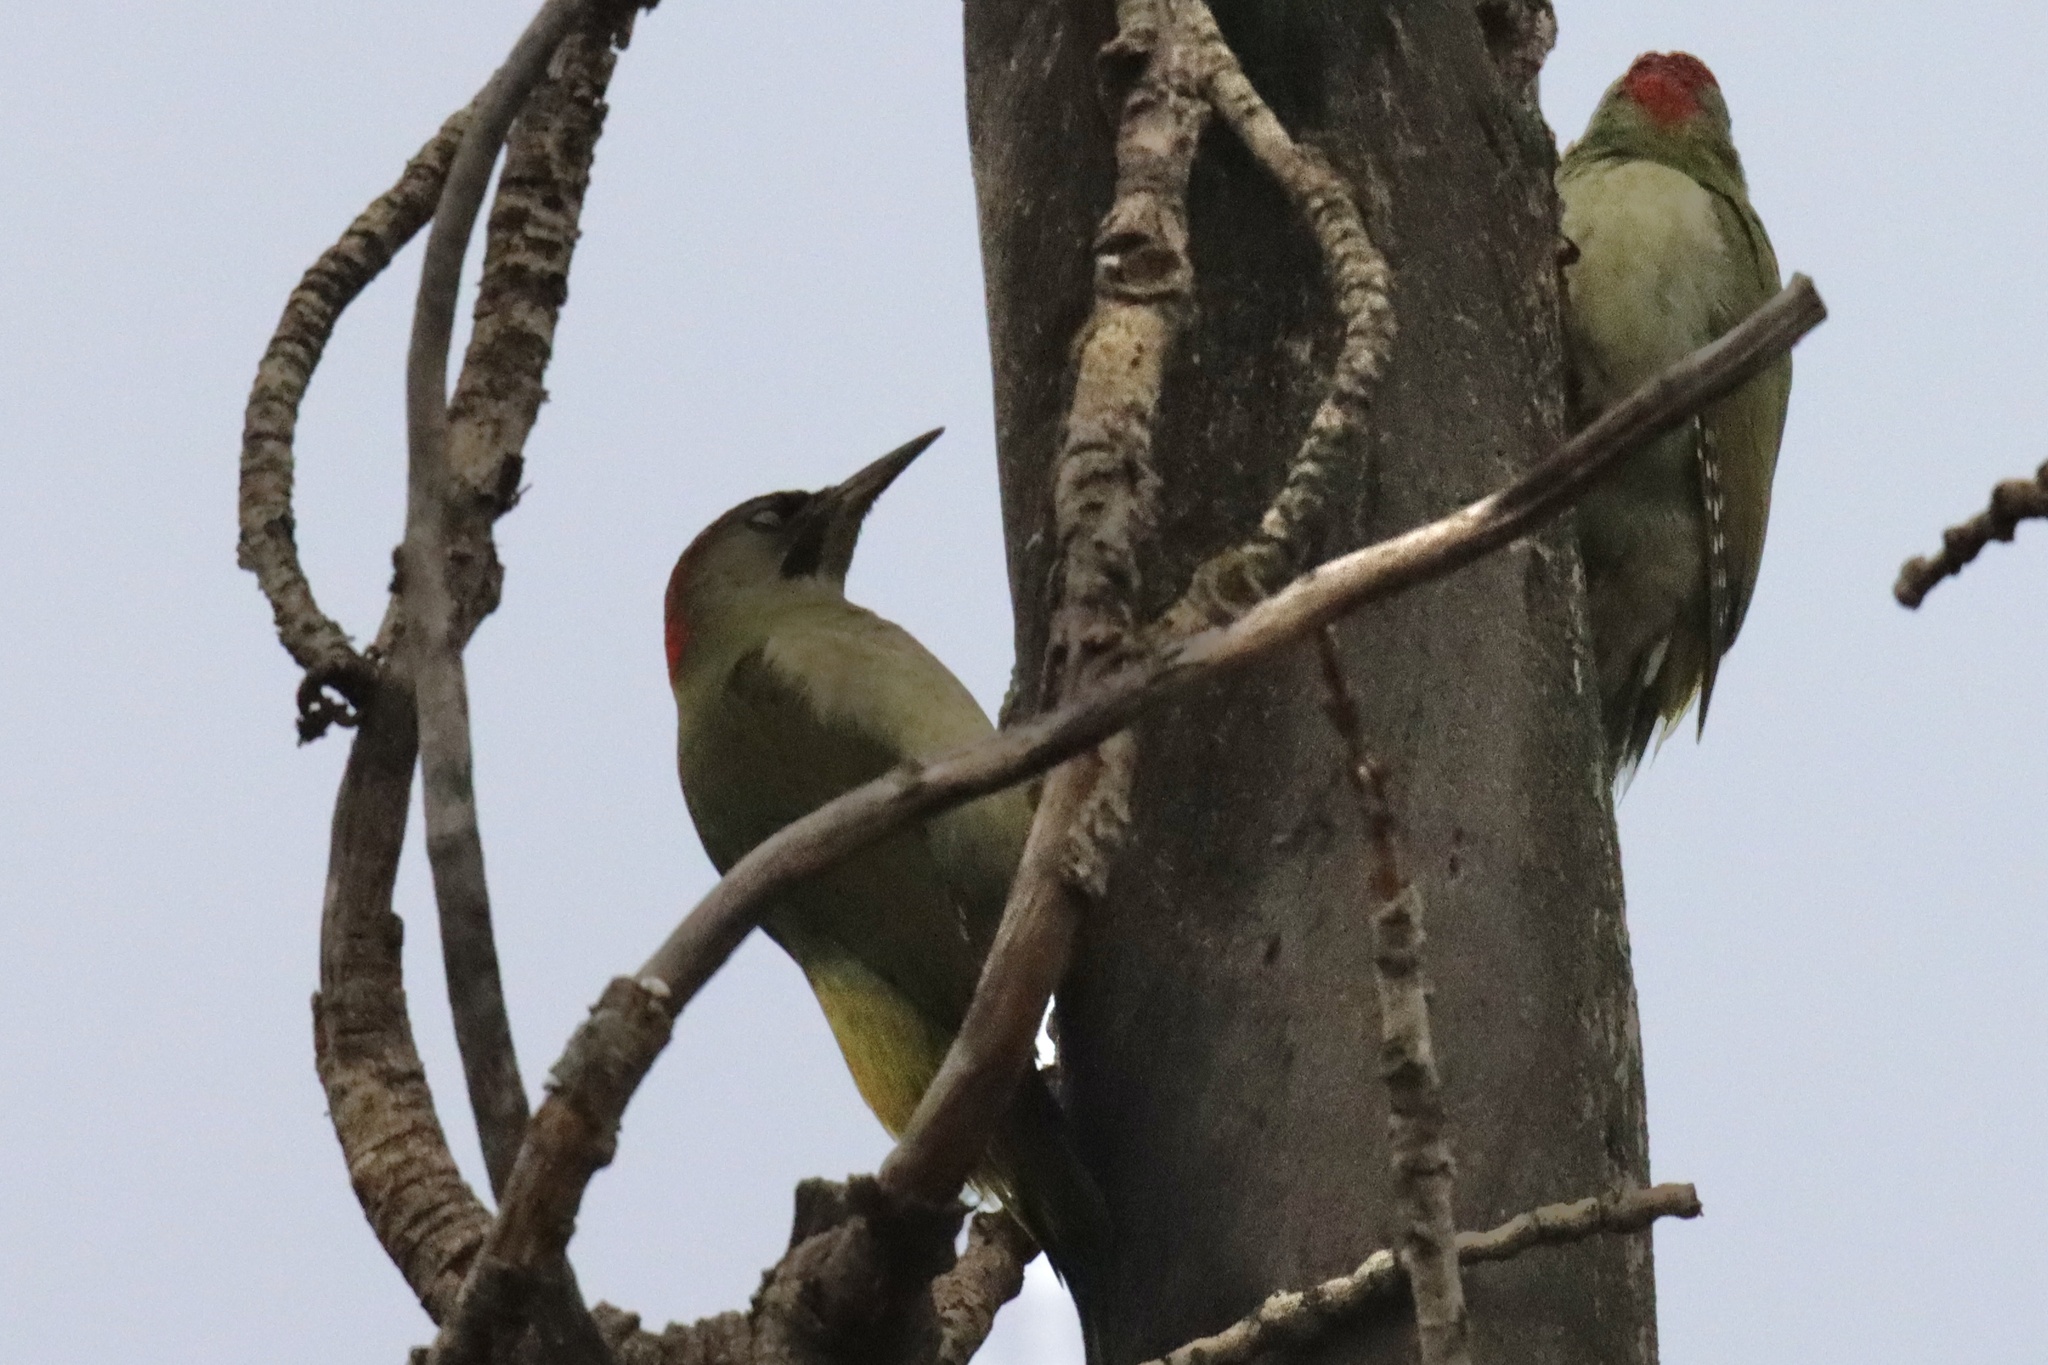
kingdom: Animalia
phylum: Chordata
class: Aves
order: Piciformes
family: Picidae
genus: Picus
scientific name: Picus sharpei
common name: Iberian green woodpecker
